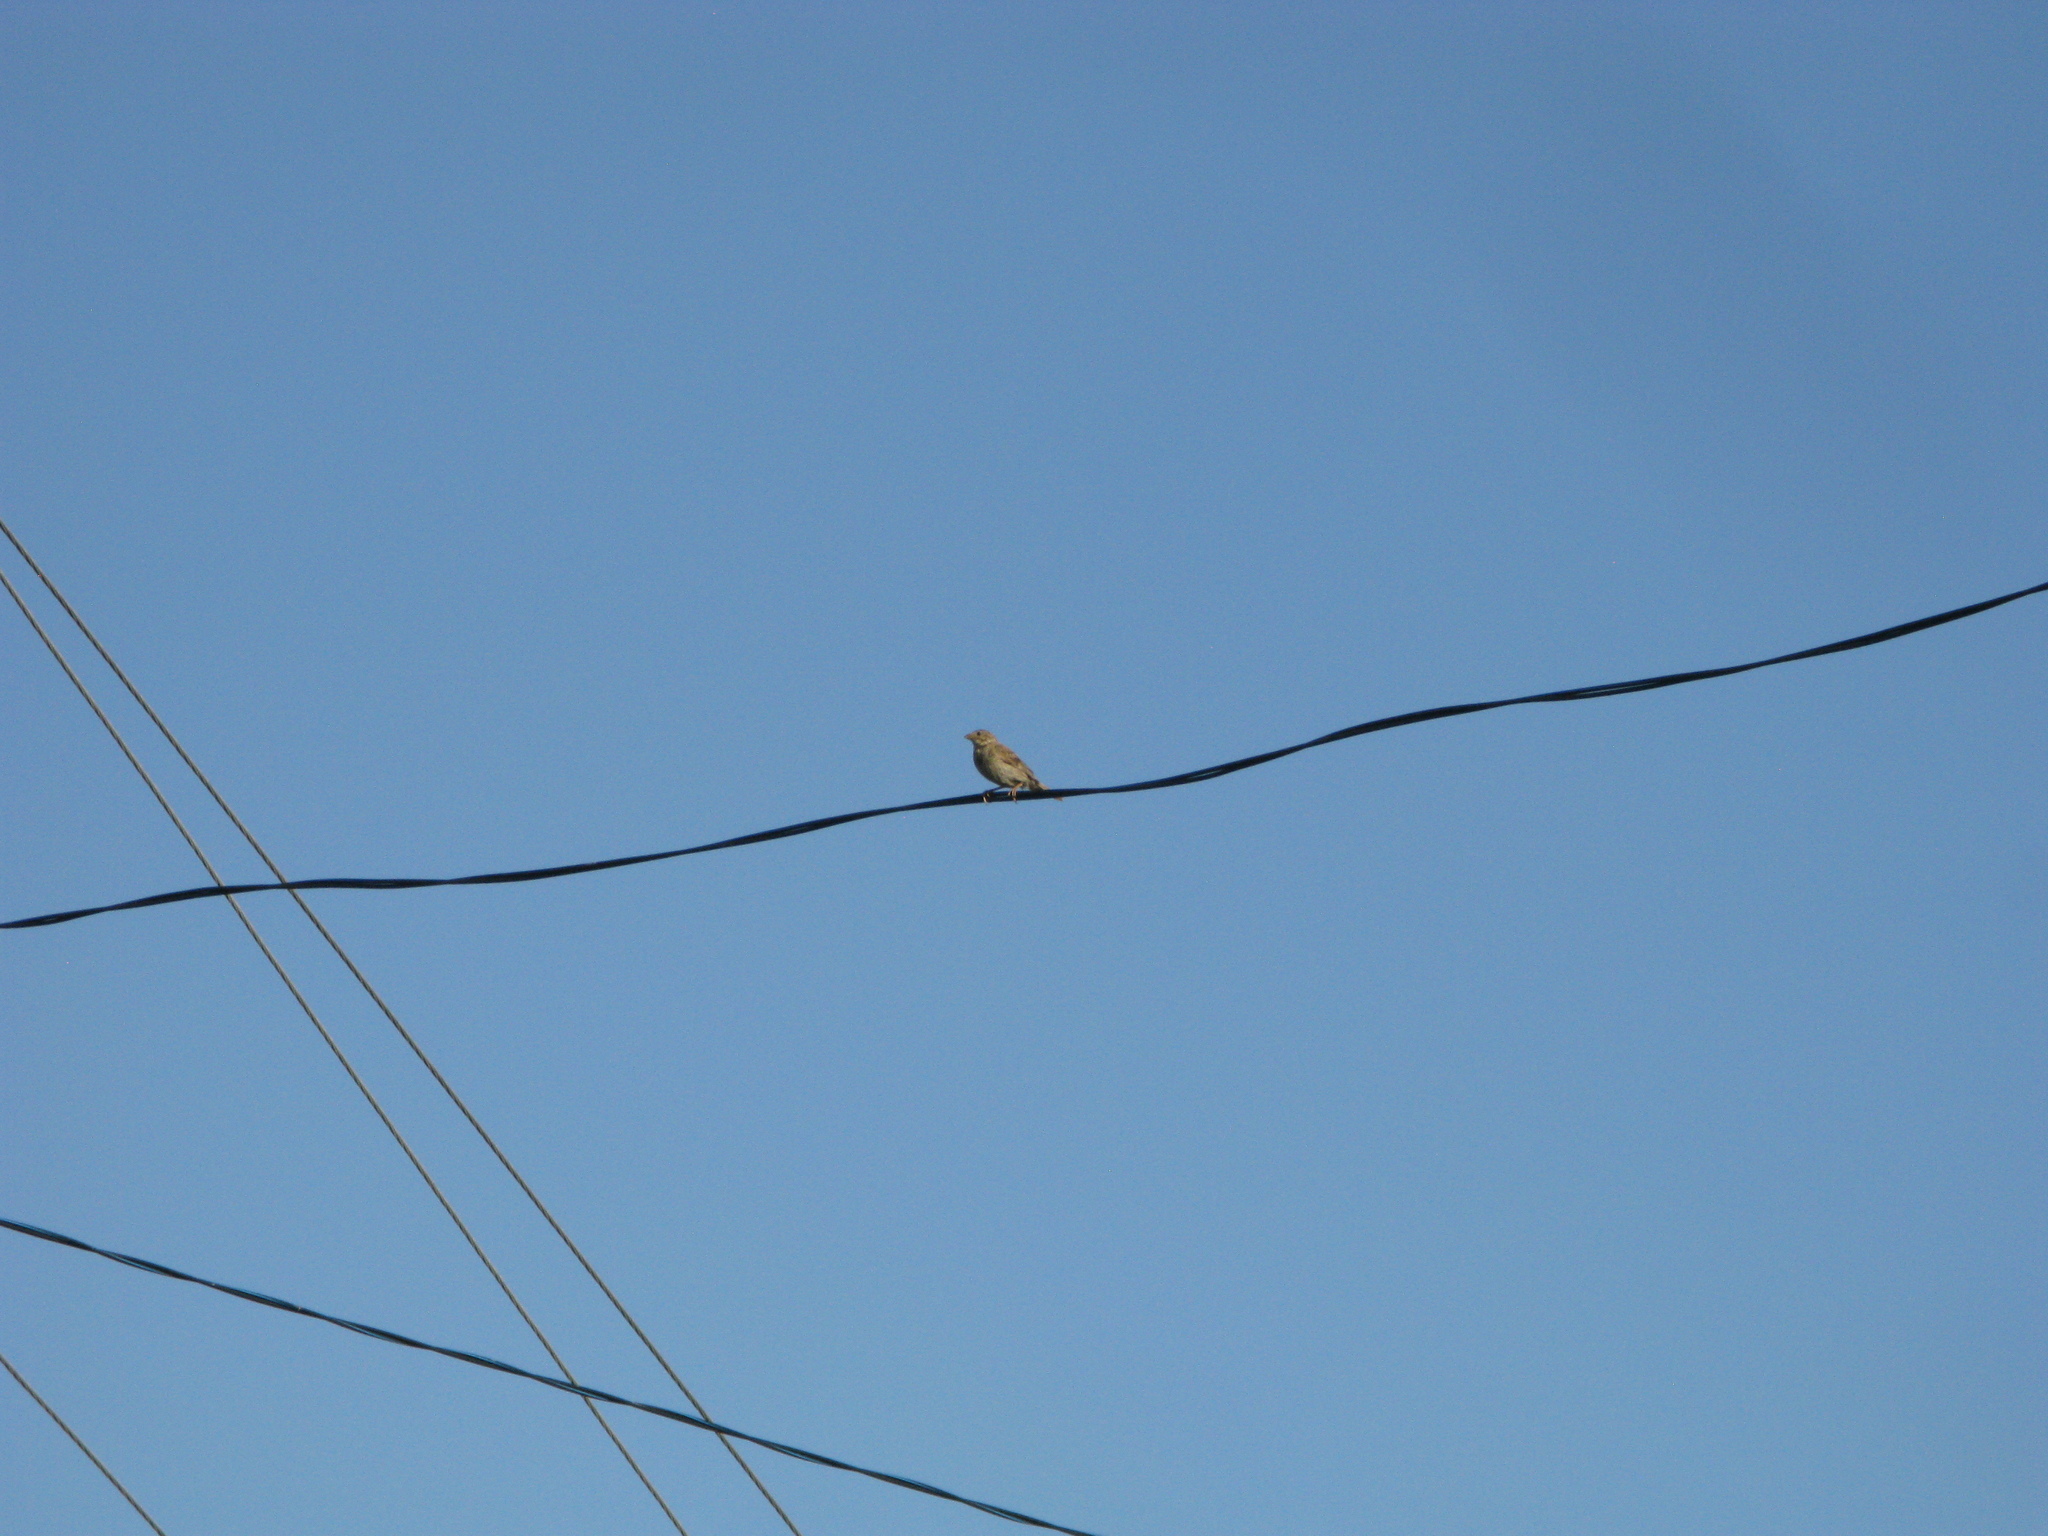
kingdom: Animalia
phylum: Chordata
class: Aves
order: Passeriformes
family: Emberizidae
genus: Emberiza
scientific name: Emberiza calandra
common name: Corn bunting
